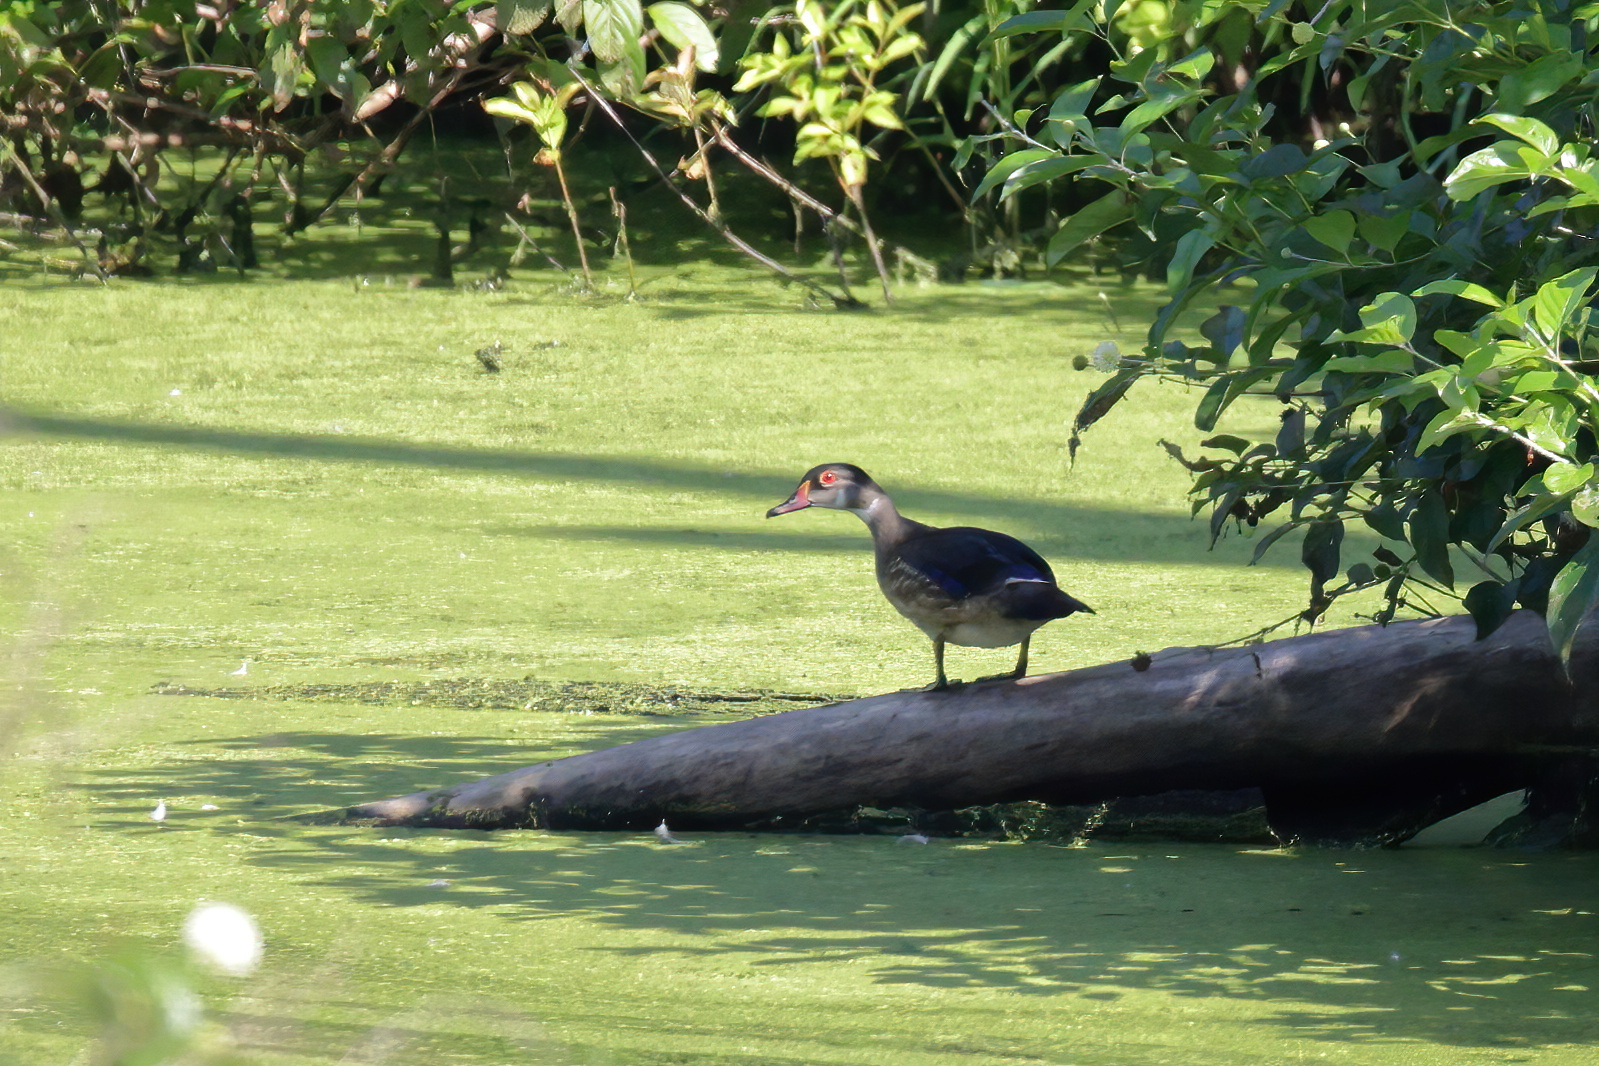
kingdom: Animalia
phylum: Chordata
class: Aves
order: Anseriformes
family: Anatidae
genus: Aix
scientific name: Aix sponsa
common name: Wood duck
